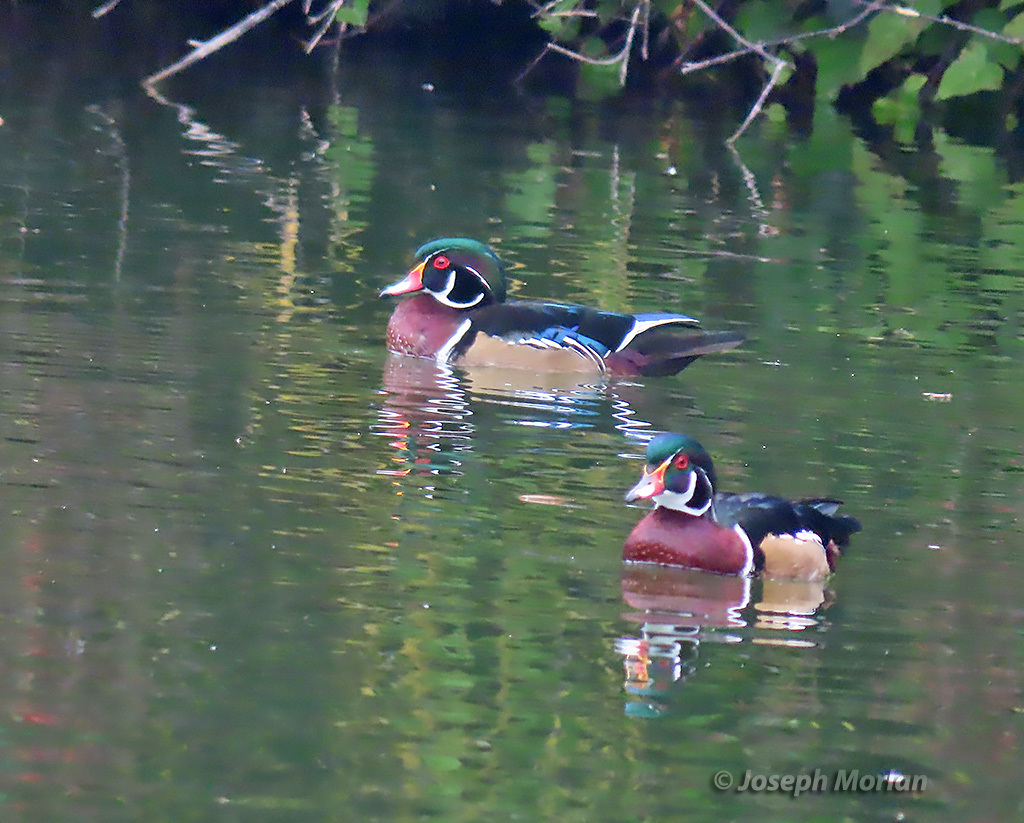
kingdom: Animalia
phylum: Chordata
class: Aves
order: Anseriformes
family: Anatidae
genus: Aix
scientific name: Aix sponsa
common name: Wood duck
